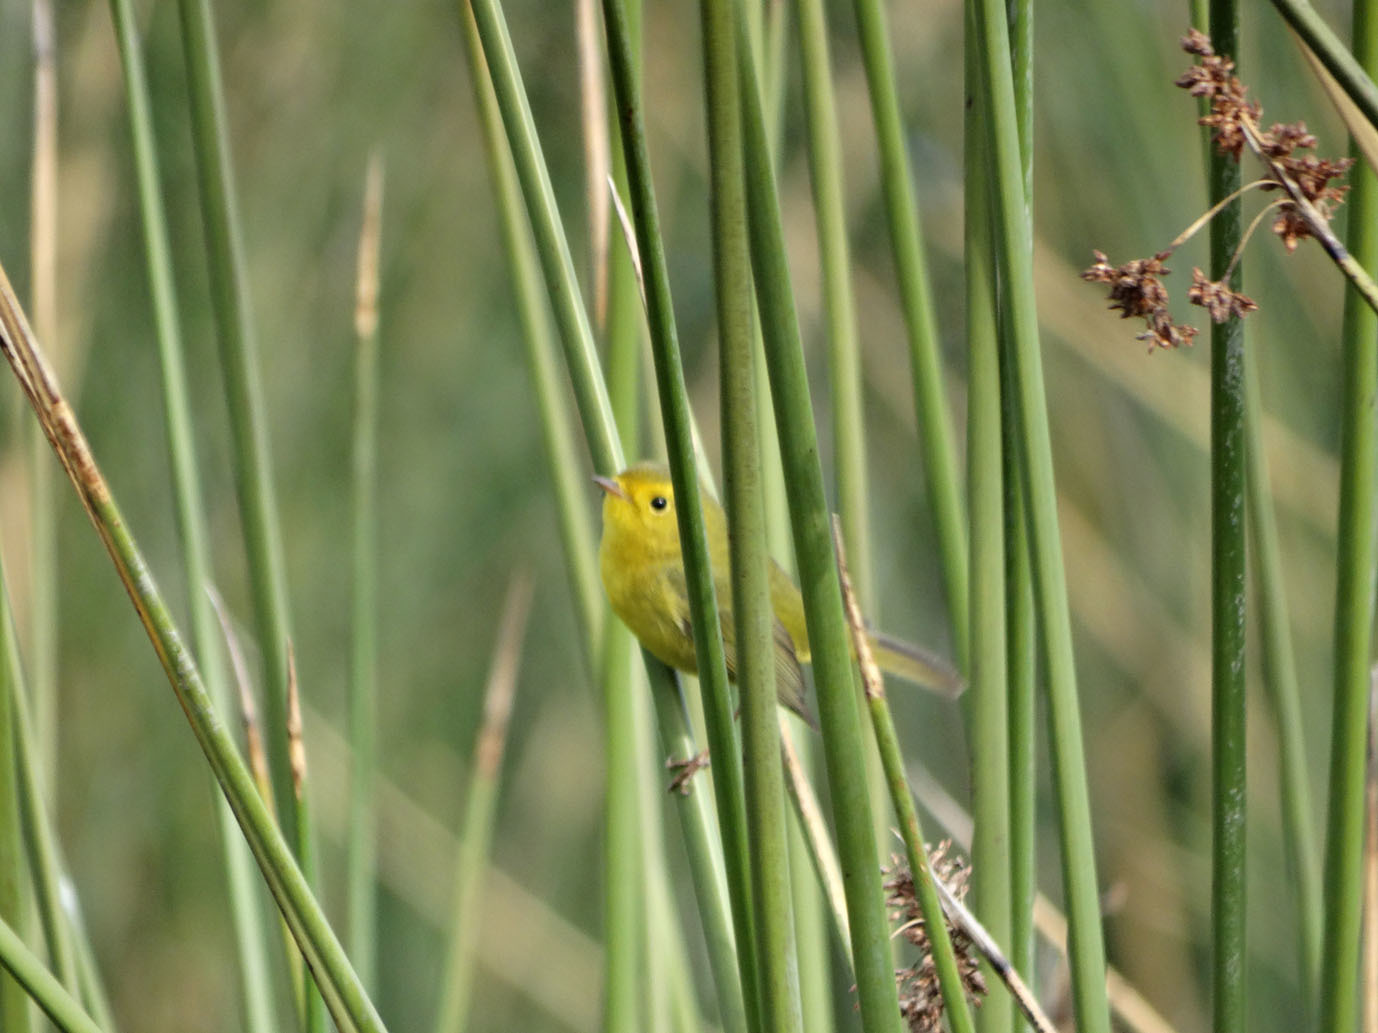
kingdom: Animalia
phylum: Chordata
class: Aves
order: Passeriformes
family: Parulidae
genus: Cardellina
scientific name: Cardellina pusilla
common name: Wilson's warbler
